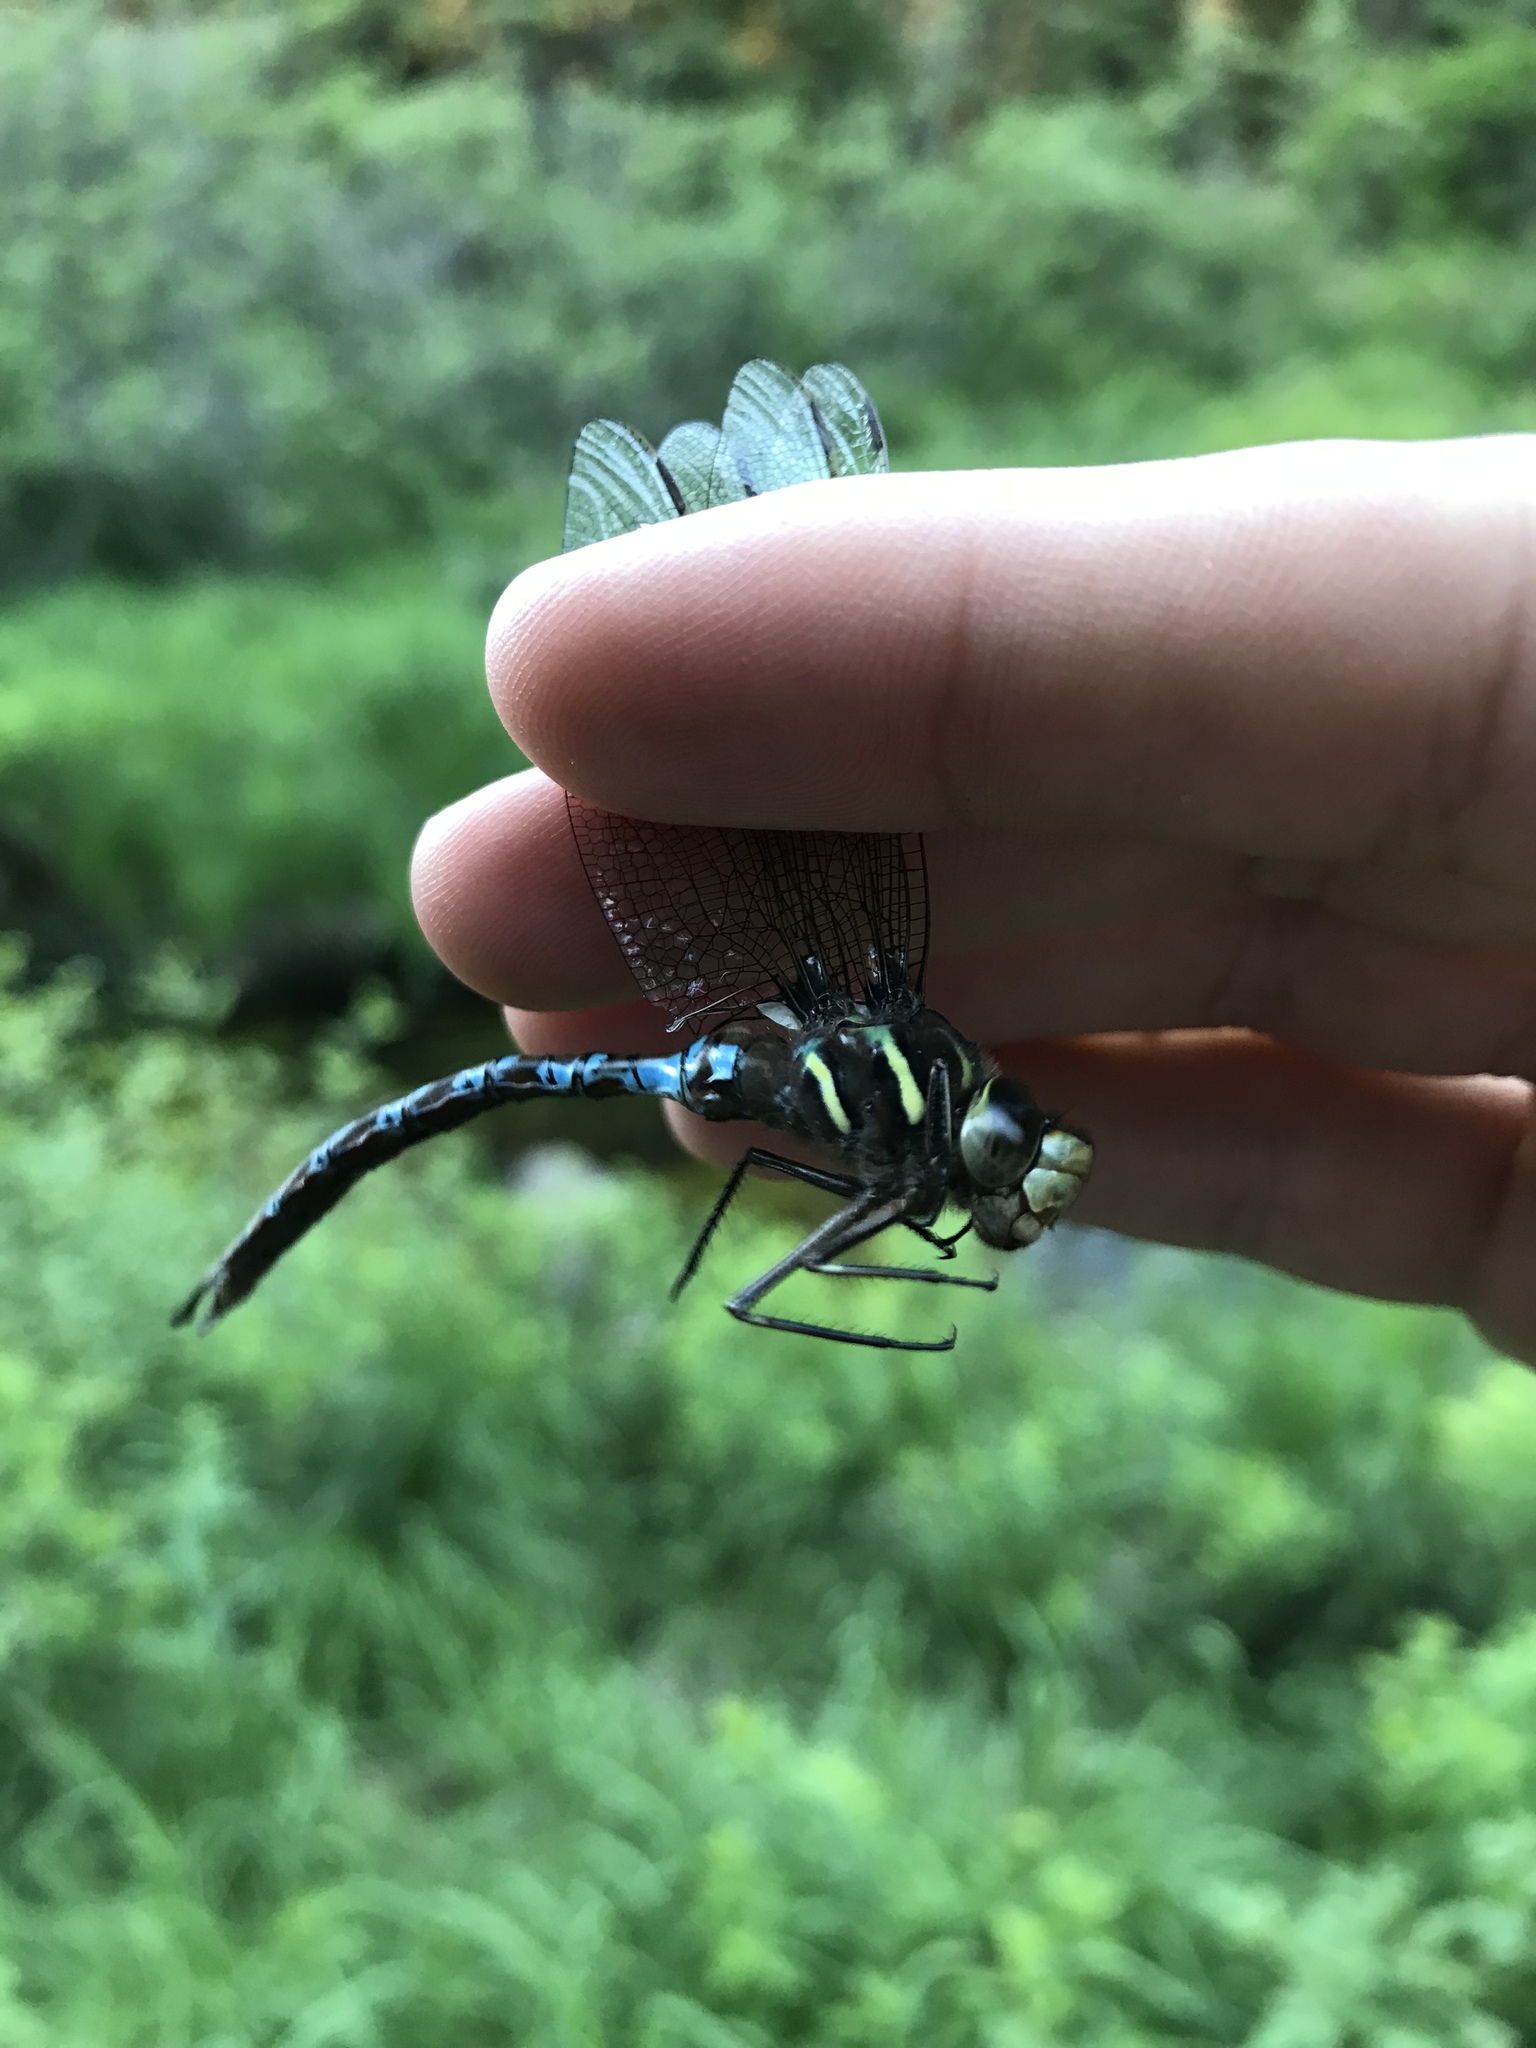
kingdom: Animalia
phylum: Arthropoda
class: Insecta
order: Odonata
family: Aeshnidae
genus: Basiaeschna
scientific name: Basiaeschna janata
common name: Springtime darner
